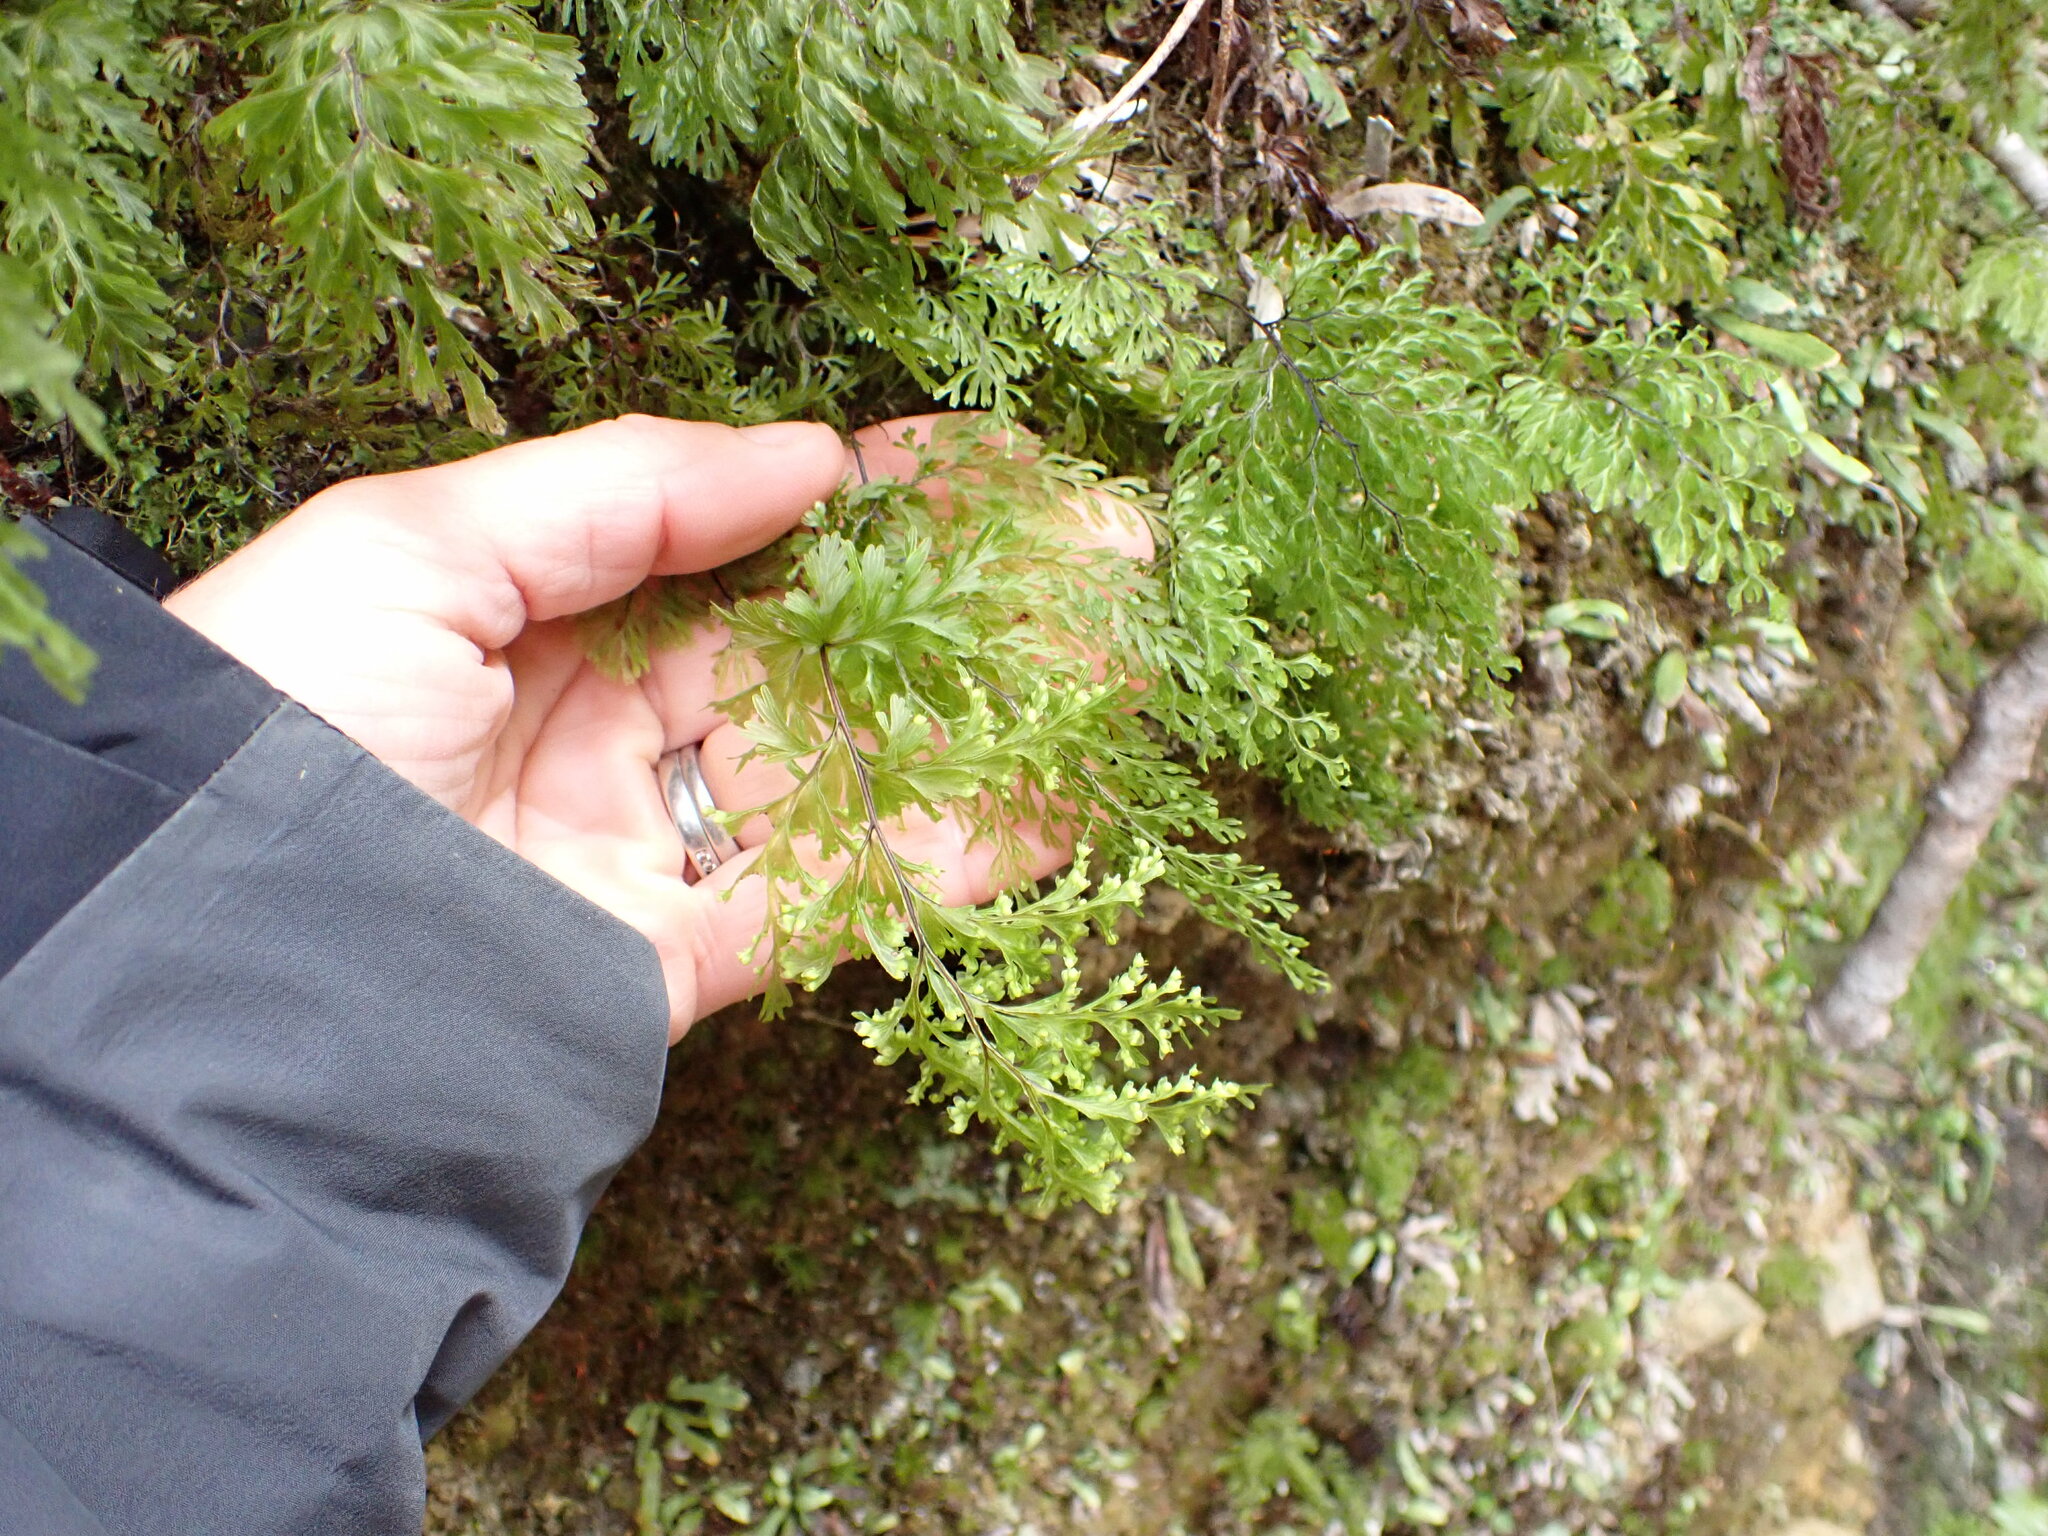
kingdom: Plantae
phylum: Tracheophyta
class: Polypodiopsida
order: Hymenophyllales
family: Hymenophyllaceae
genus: Hymenophyllum
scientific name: Hymenophyllum demissum
